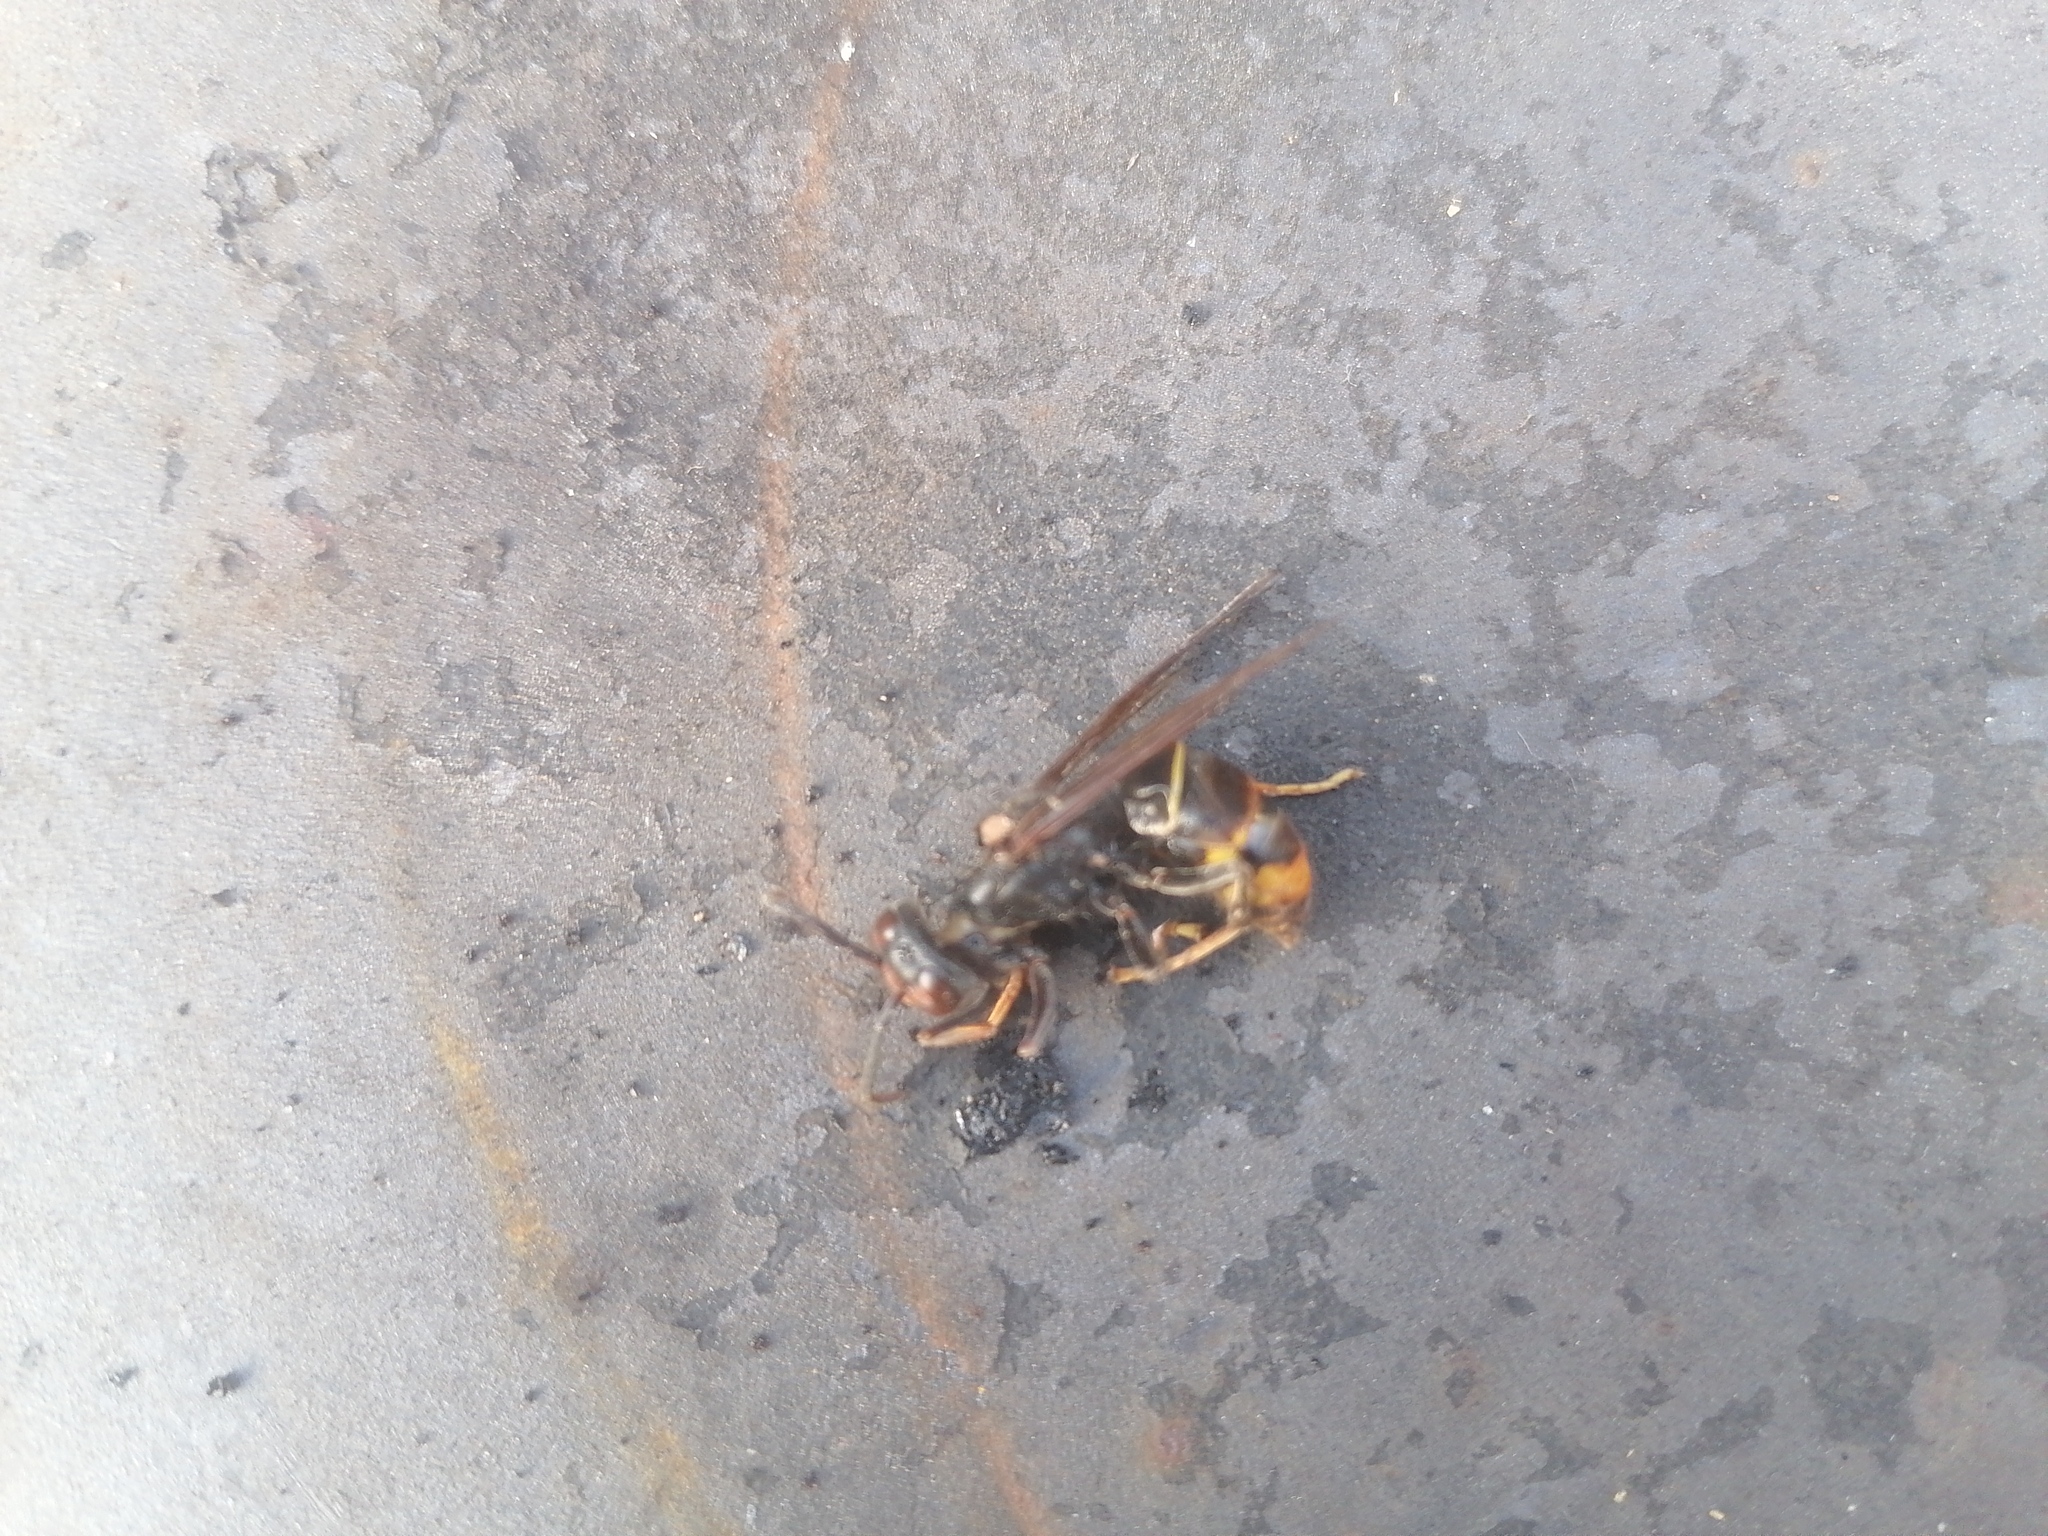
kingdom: Animalia
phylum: Arthropoda
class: Insecta
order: Hymenoptera
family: Vespidae
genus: Vespa
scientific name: Vespa velutina
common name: Asian hornet
